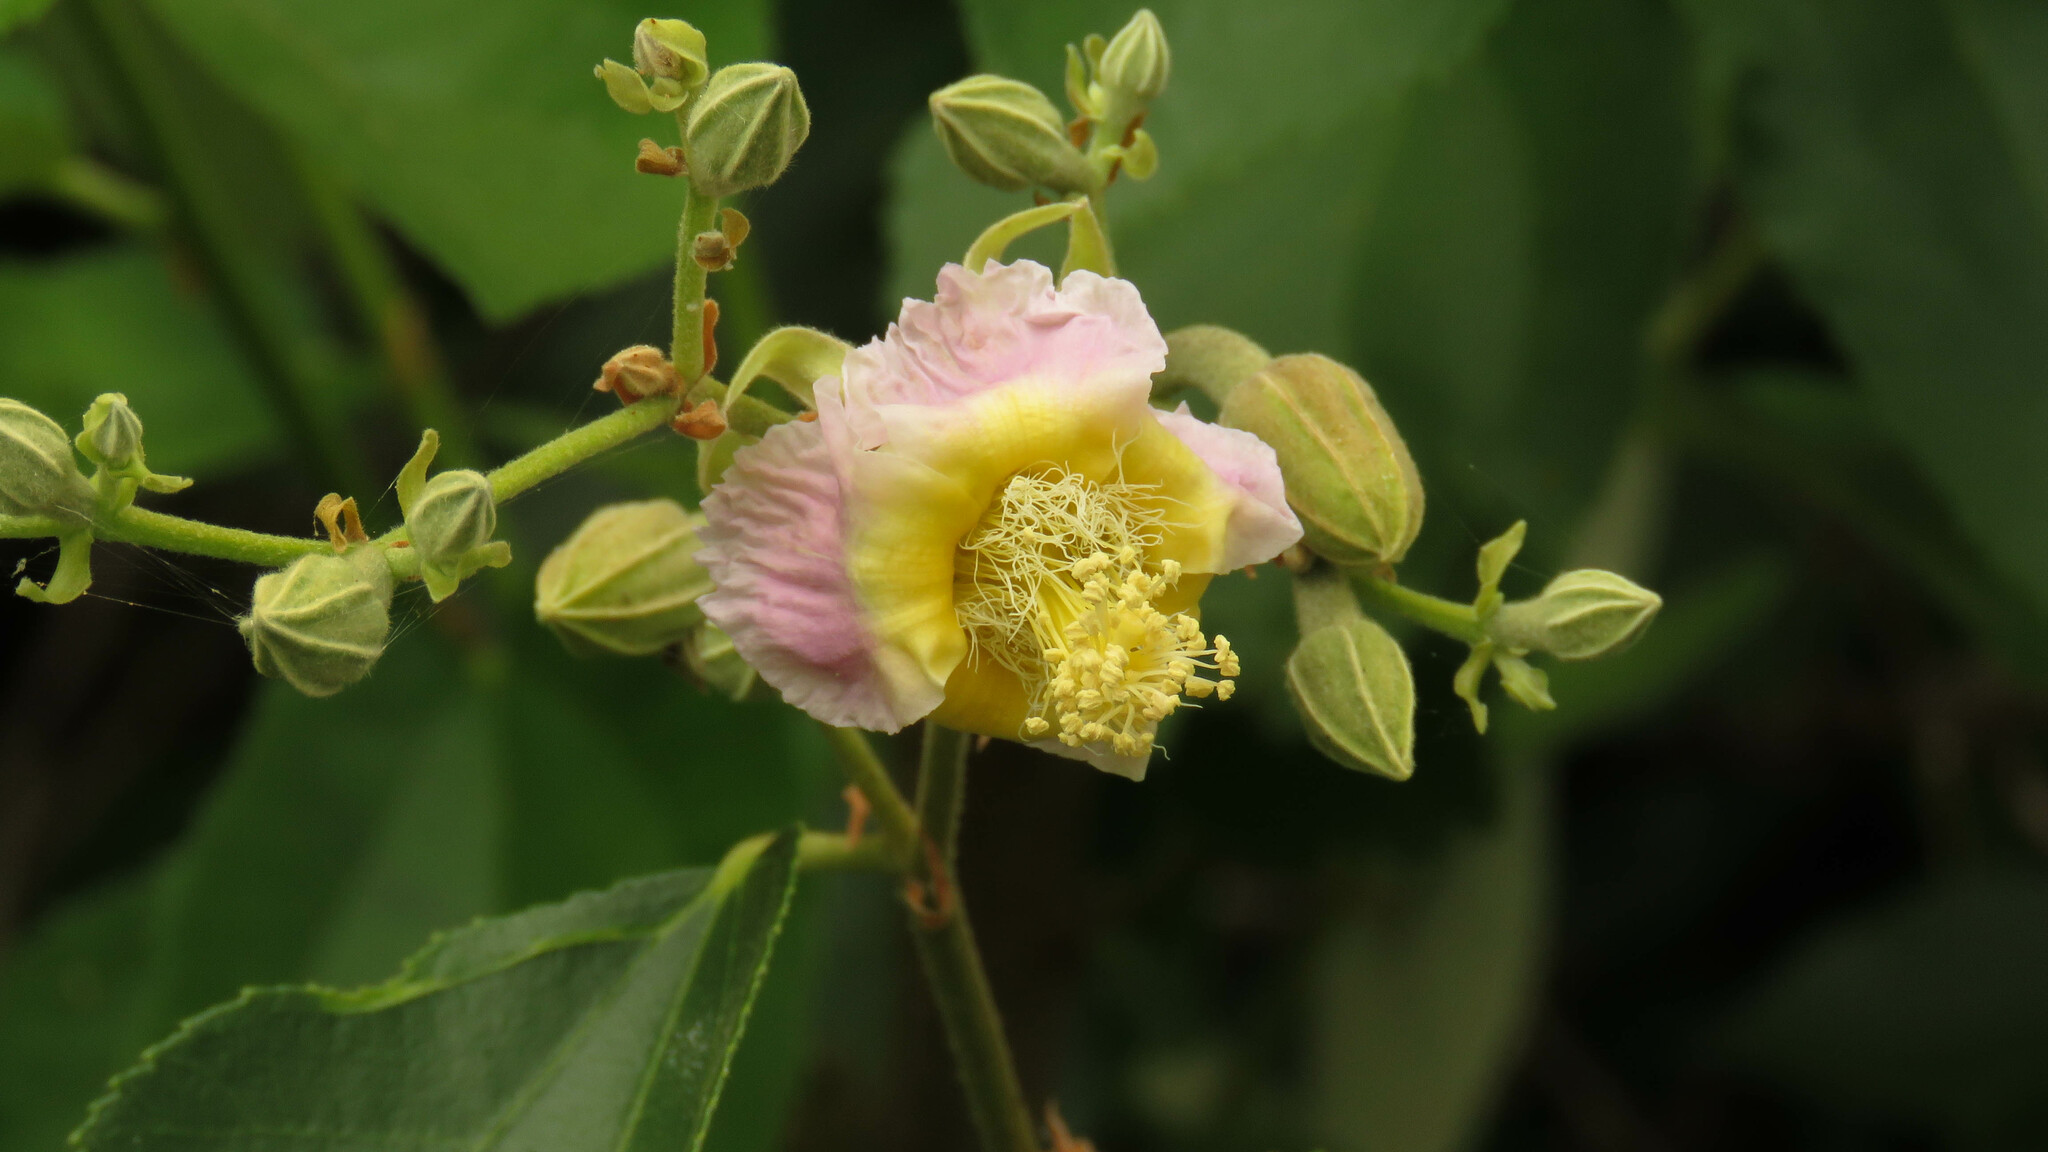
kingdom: Plantae
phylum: Tracheophyta
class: Magnoliopsida
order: Malvales
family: Malvaceae
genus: Luehea
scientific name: Luehea divaricata
